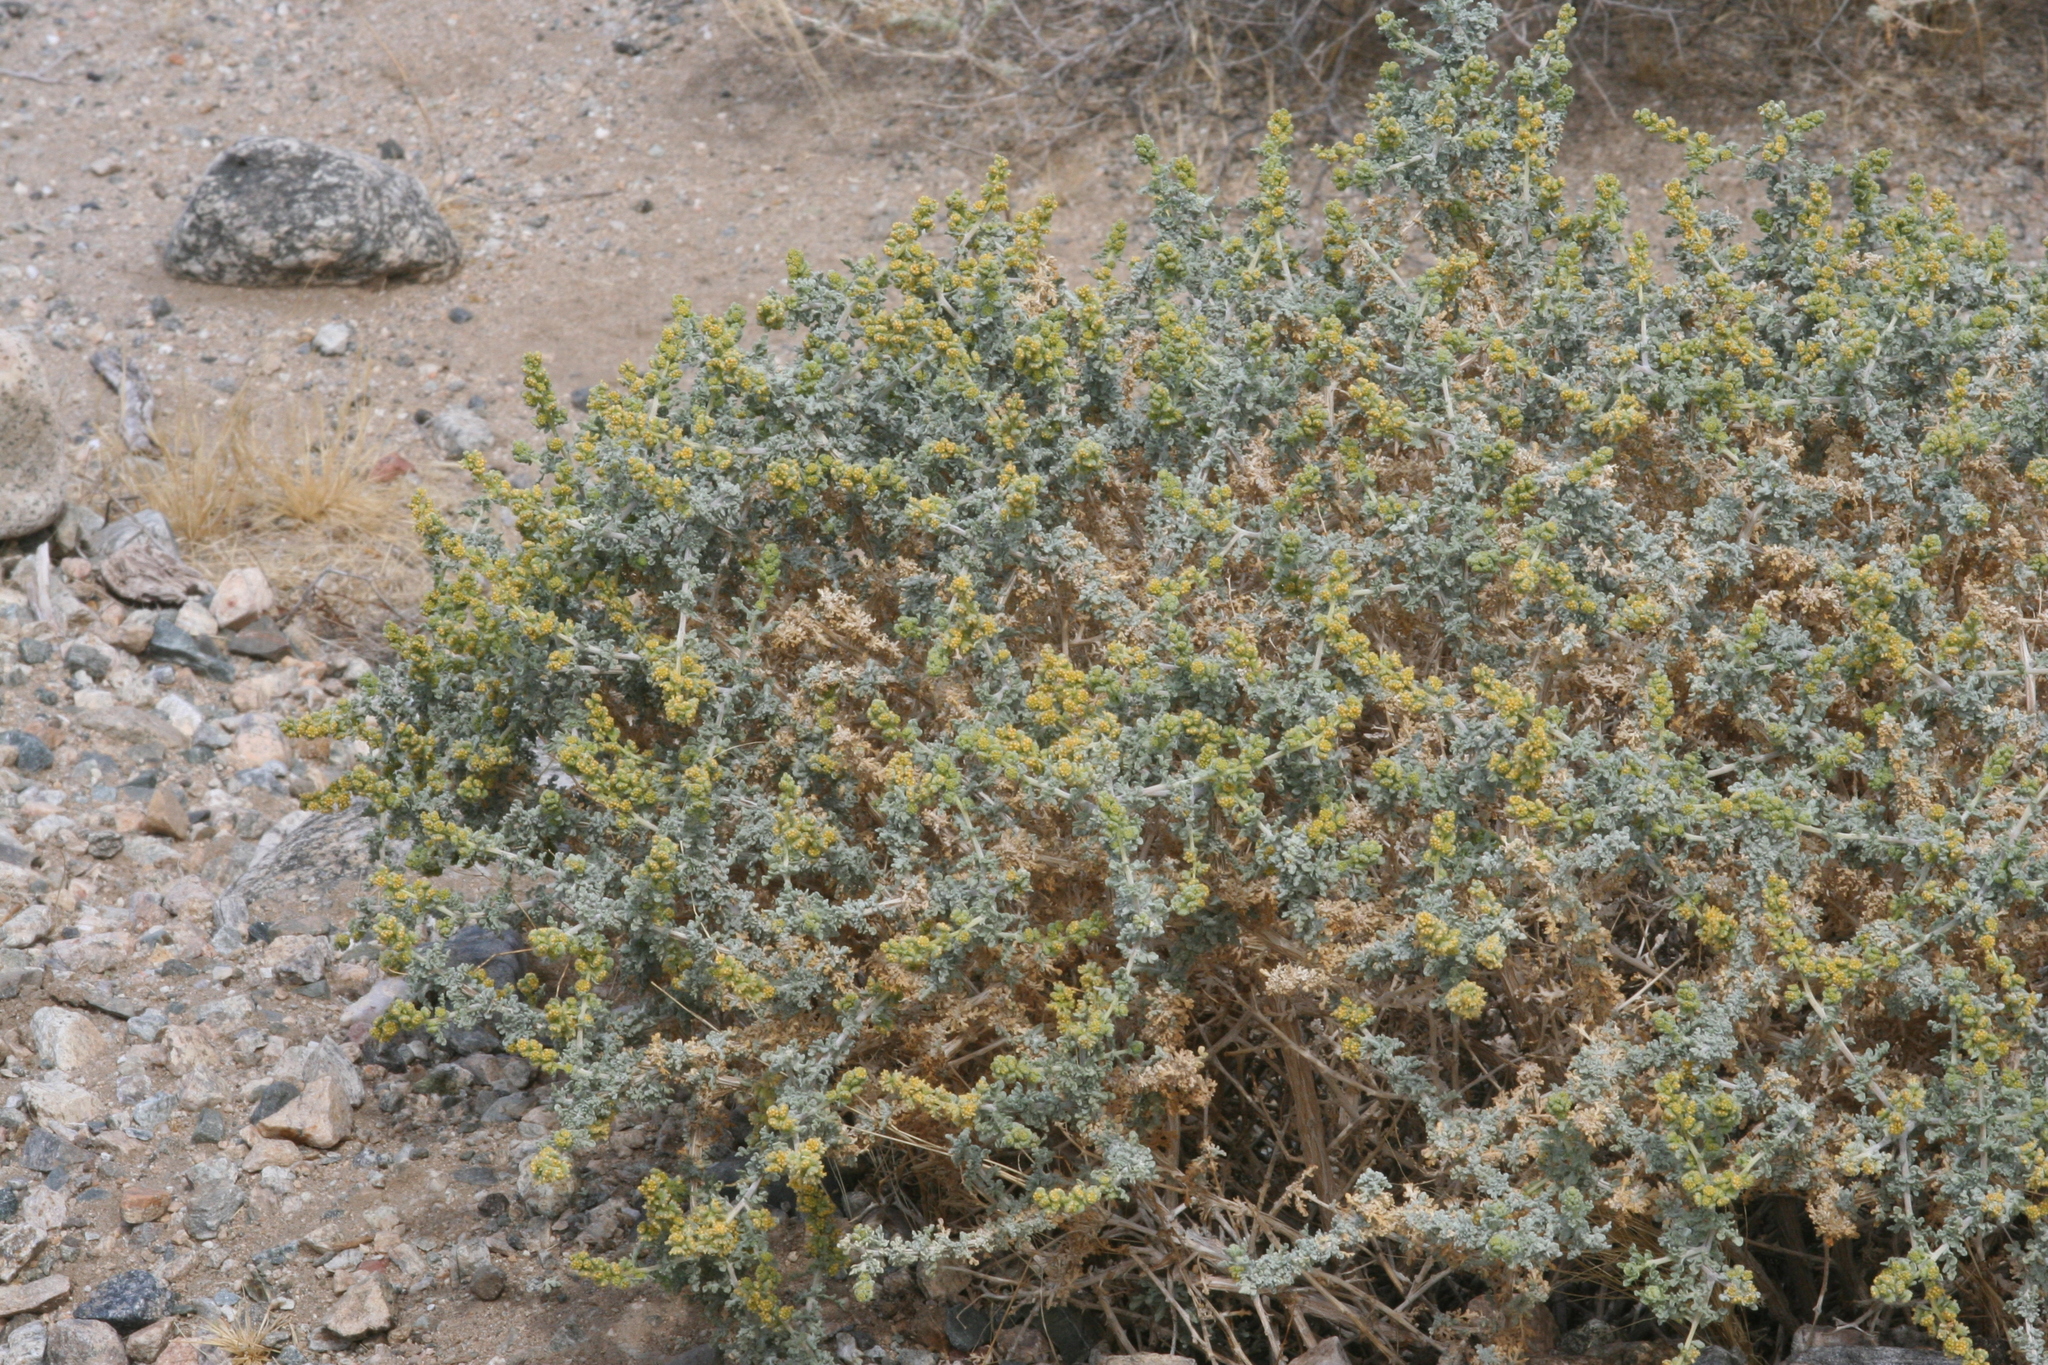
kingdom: Plantae
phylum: Tracheophyta
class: Magnoliopsida
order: Asterales
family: Asteraceae
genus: Ambrosia
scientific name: Ambrosia dumosa
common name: Bur-sage
